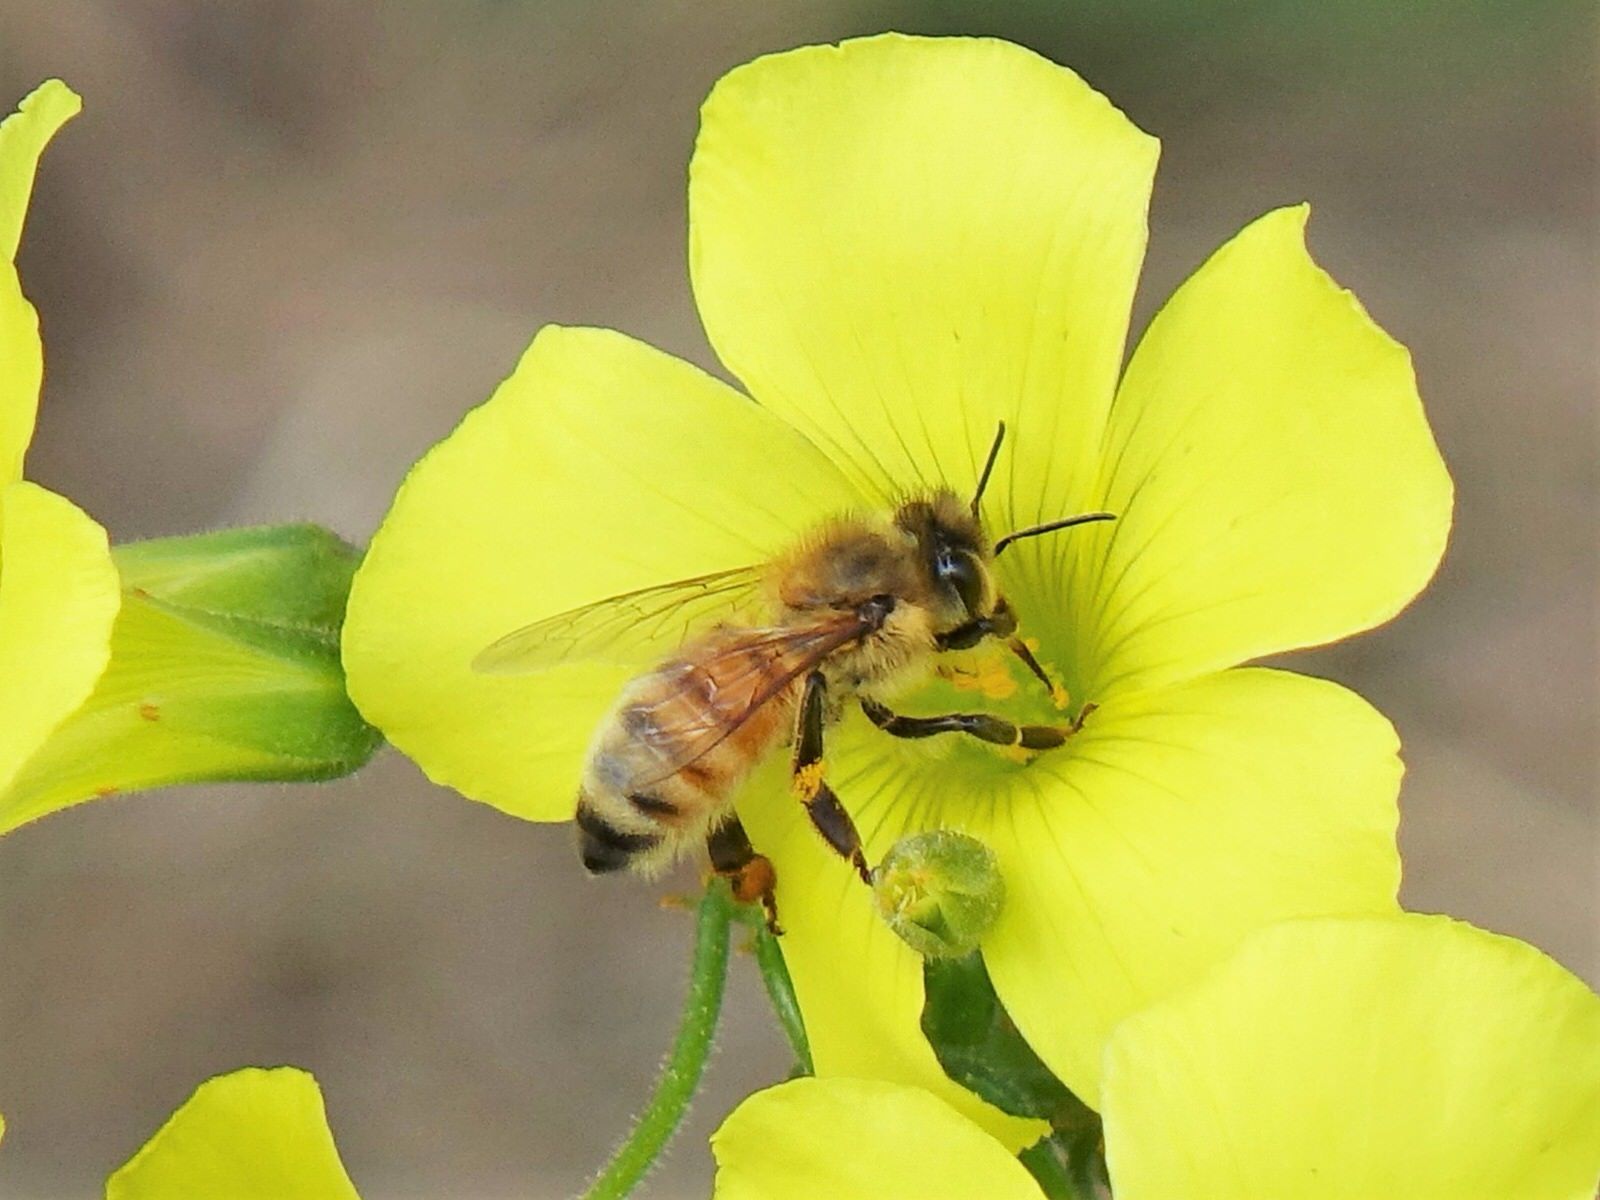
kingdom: Animalia
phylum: Arthropoda
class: Insecta
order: Hymenoptera
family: Apidae
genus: Apis
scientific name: Apis mellifera
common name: Honey bee
